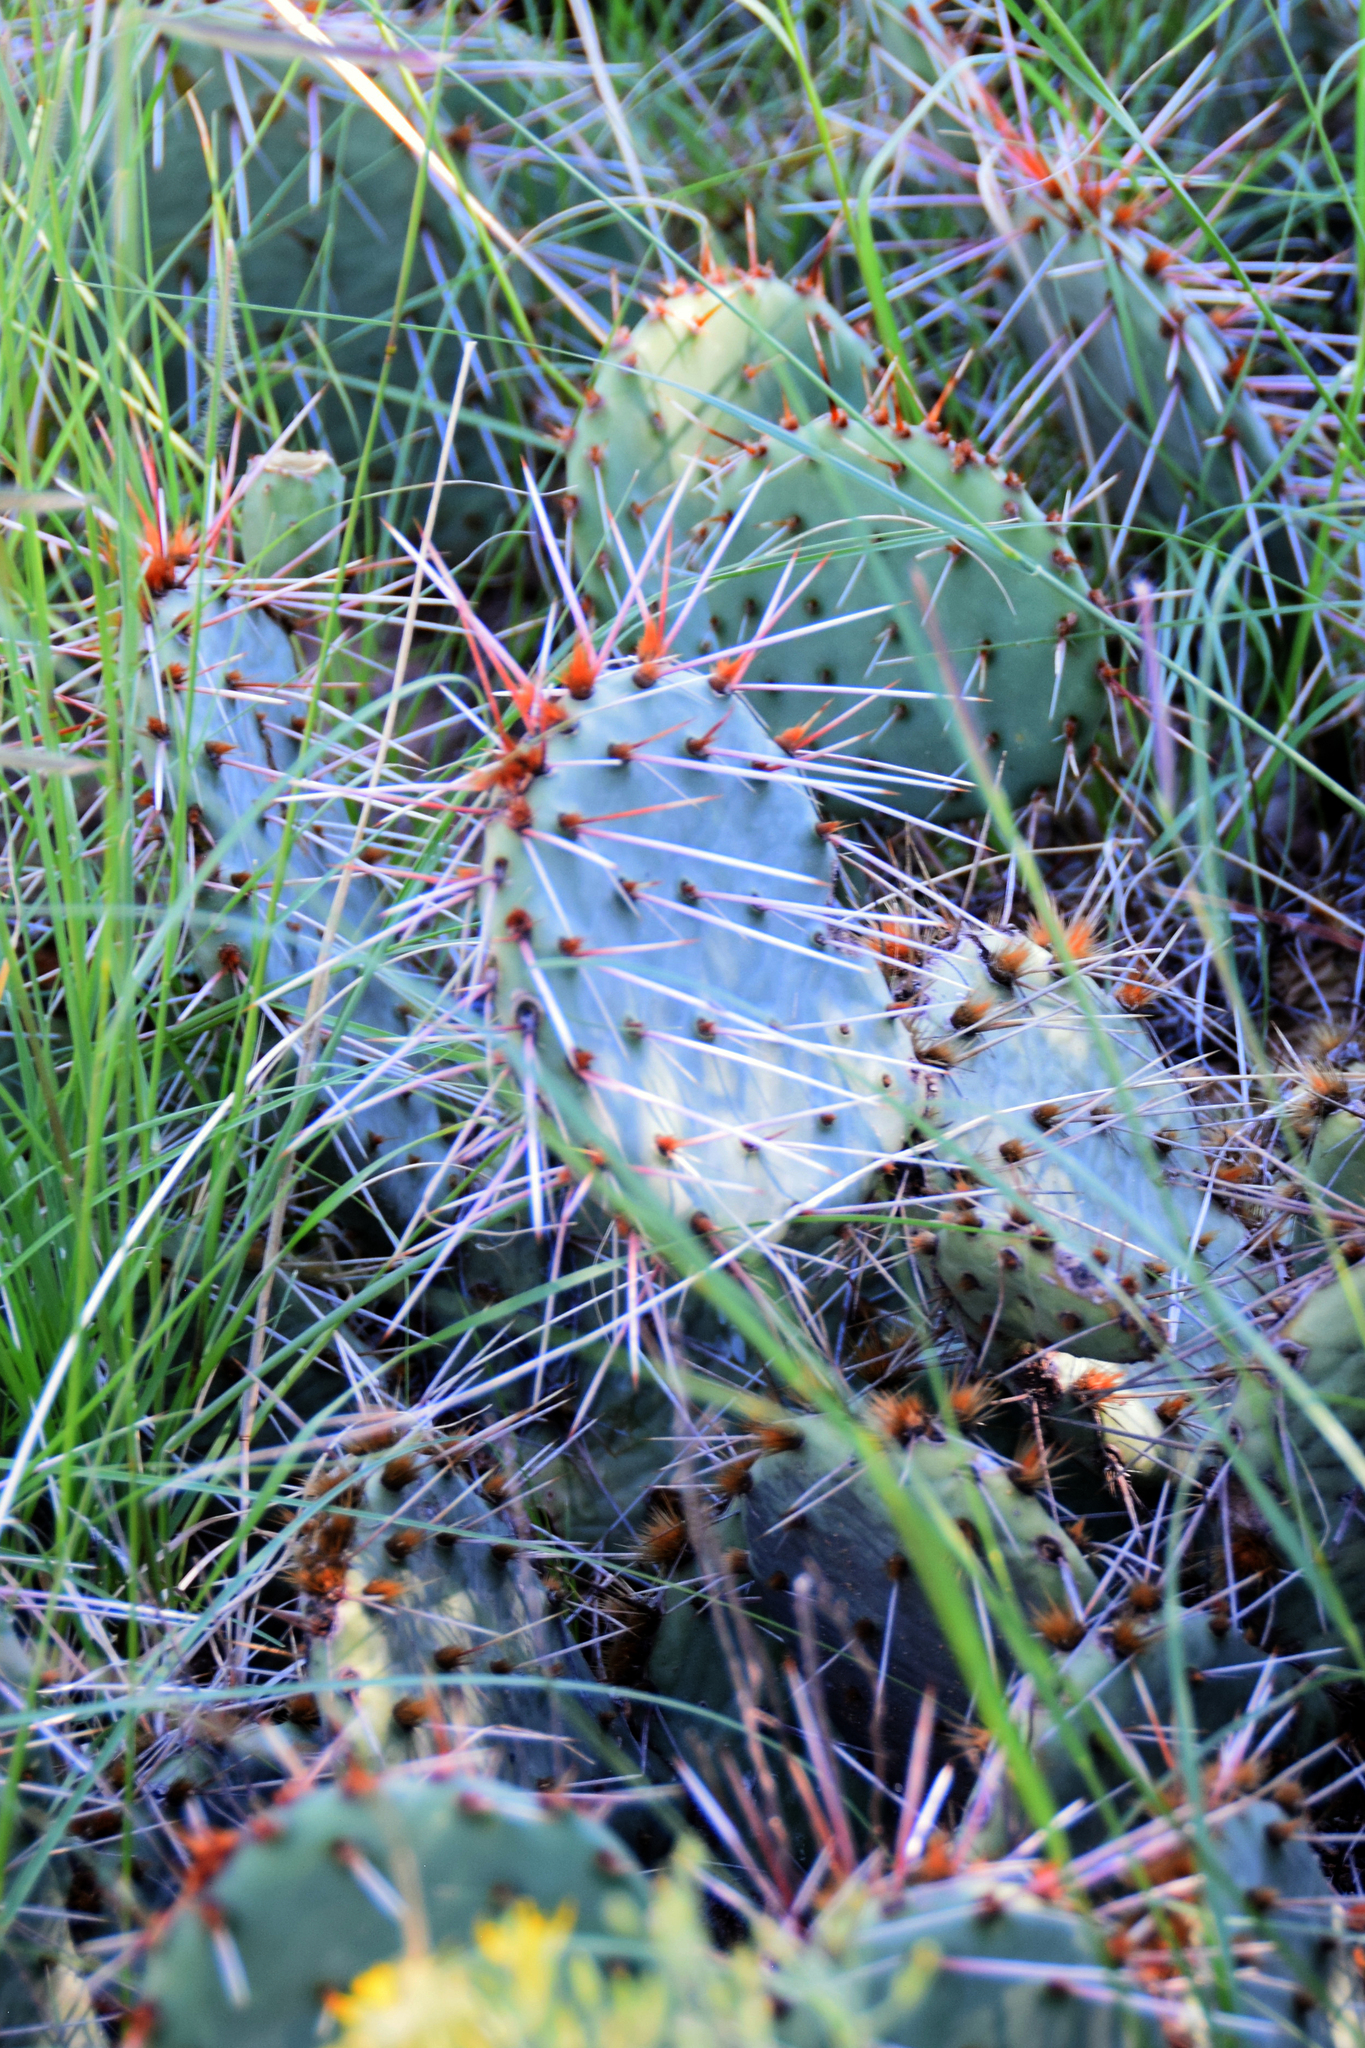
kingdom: Plantae
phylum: Tracheophyta
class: Magnoliopsida
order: Caryophyllales
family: Cactaceae
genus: Opuntia
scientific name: Opuntia phaeacantha
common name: New mexico prickly-pear
